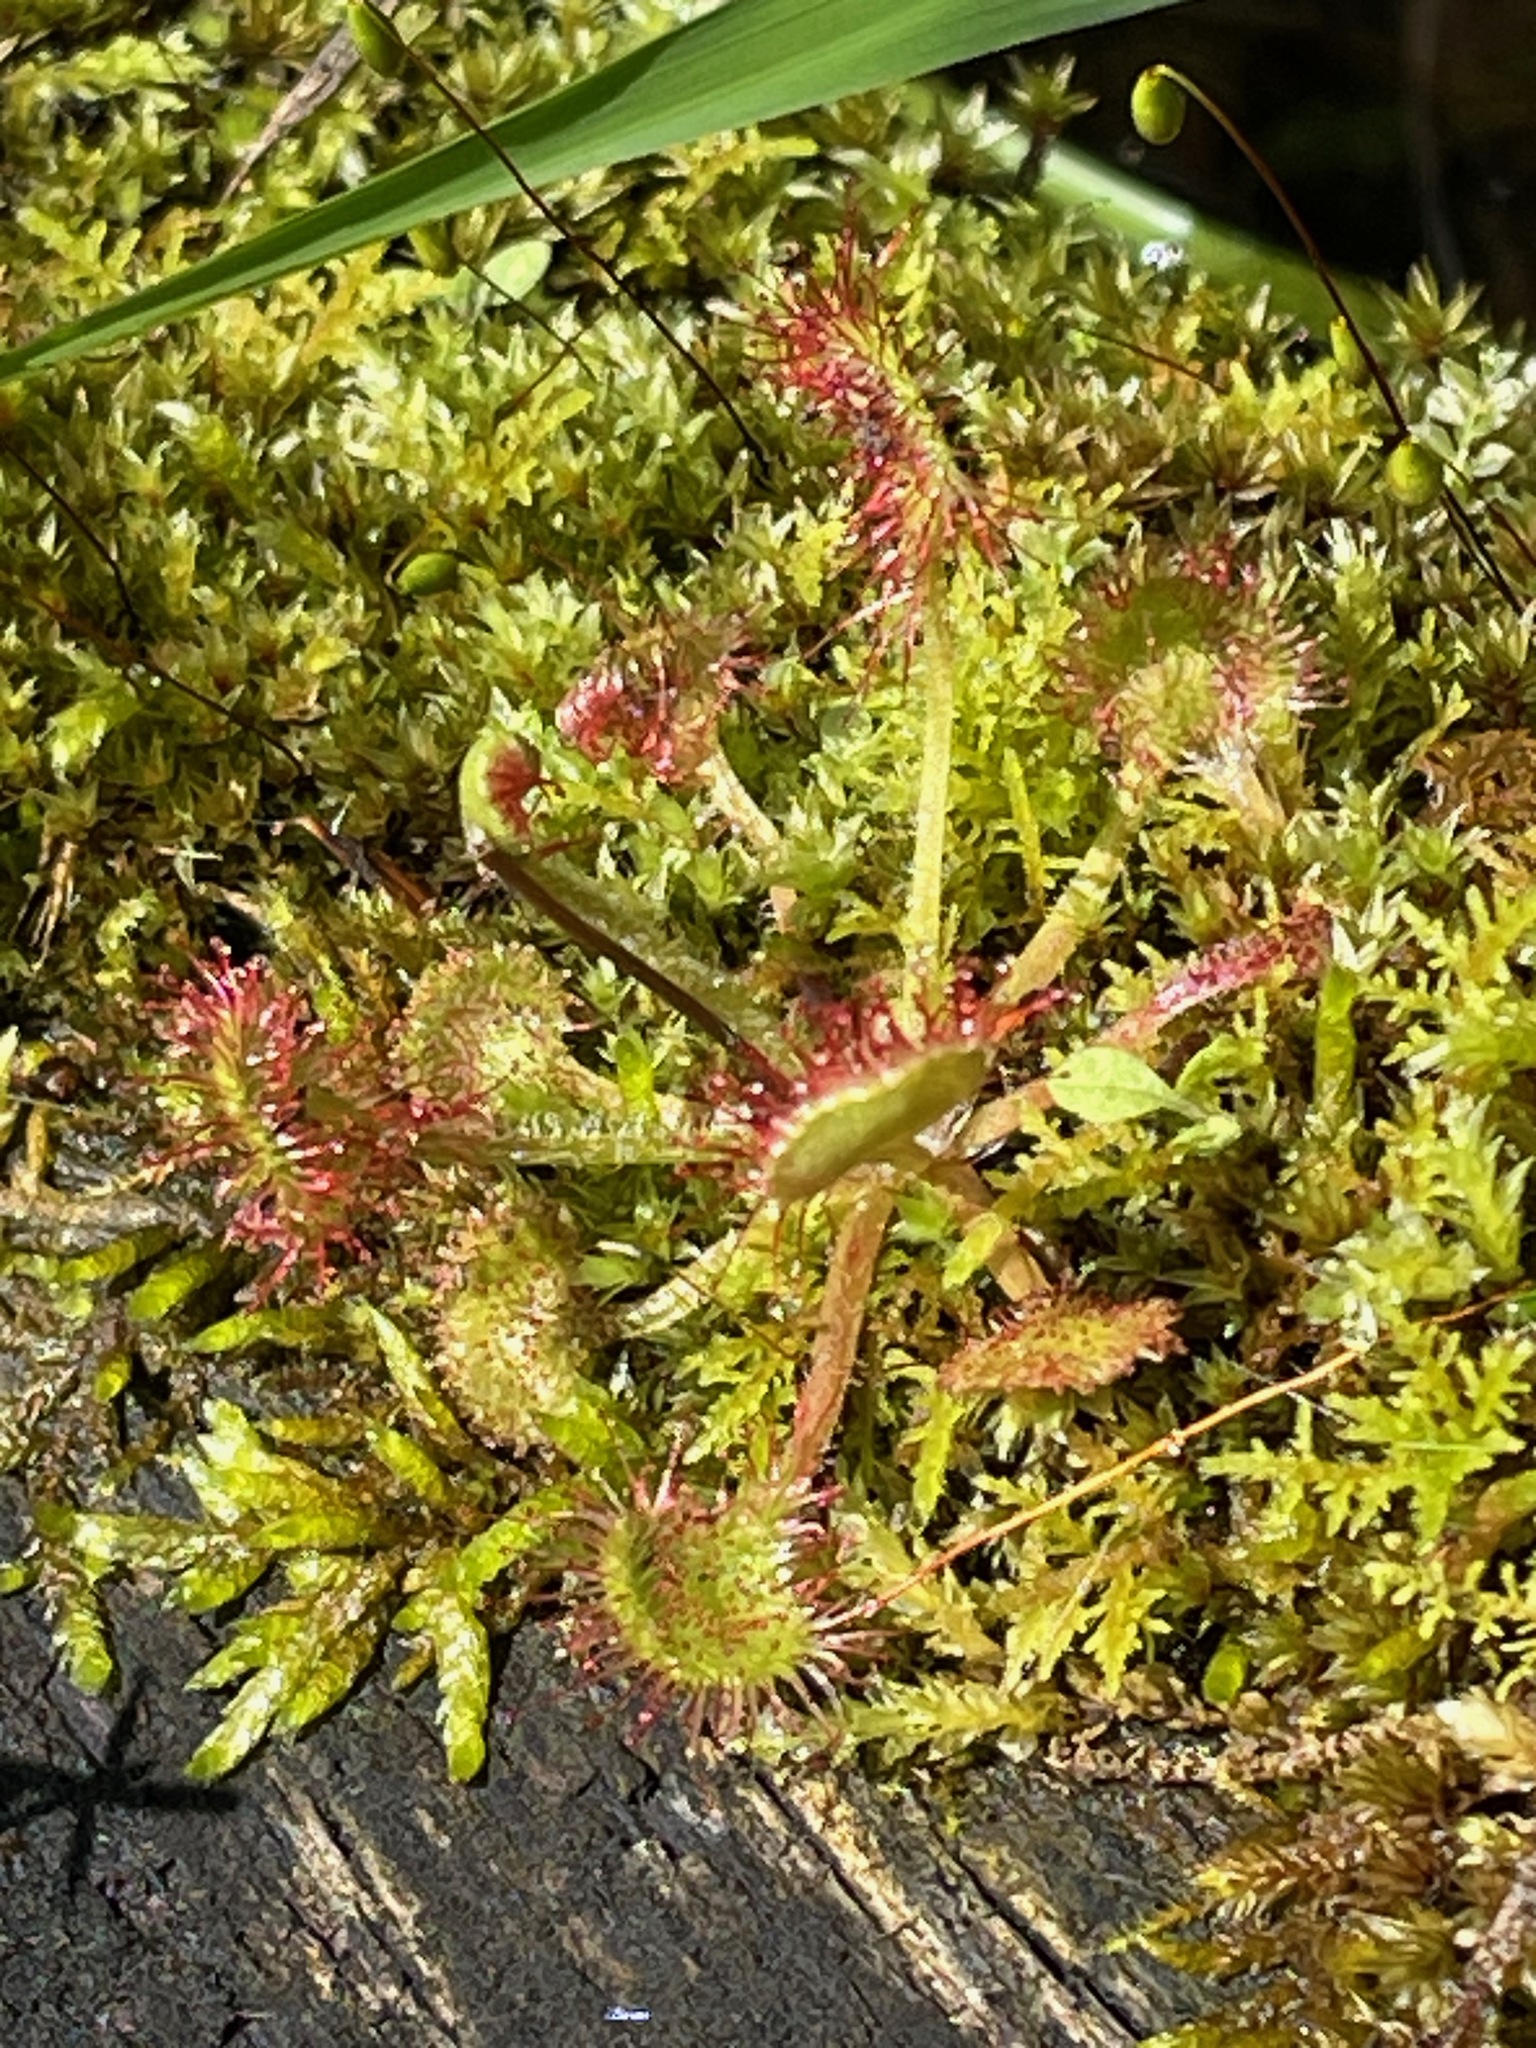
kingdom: Plantae
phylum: Tracheophyta
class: Magnoliopsida
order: Caryophyllales
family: Droseraceae
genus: Drosera
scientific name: Drosera rotundifolia
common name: Round-leaved sundew
